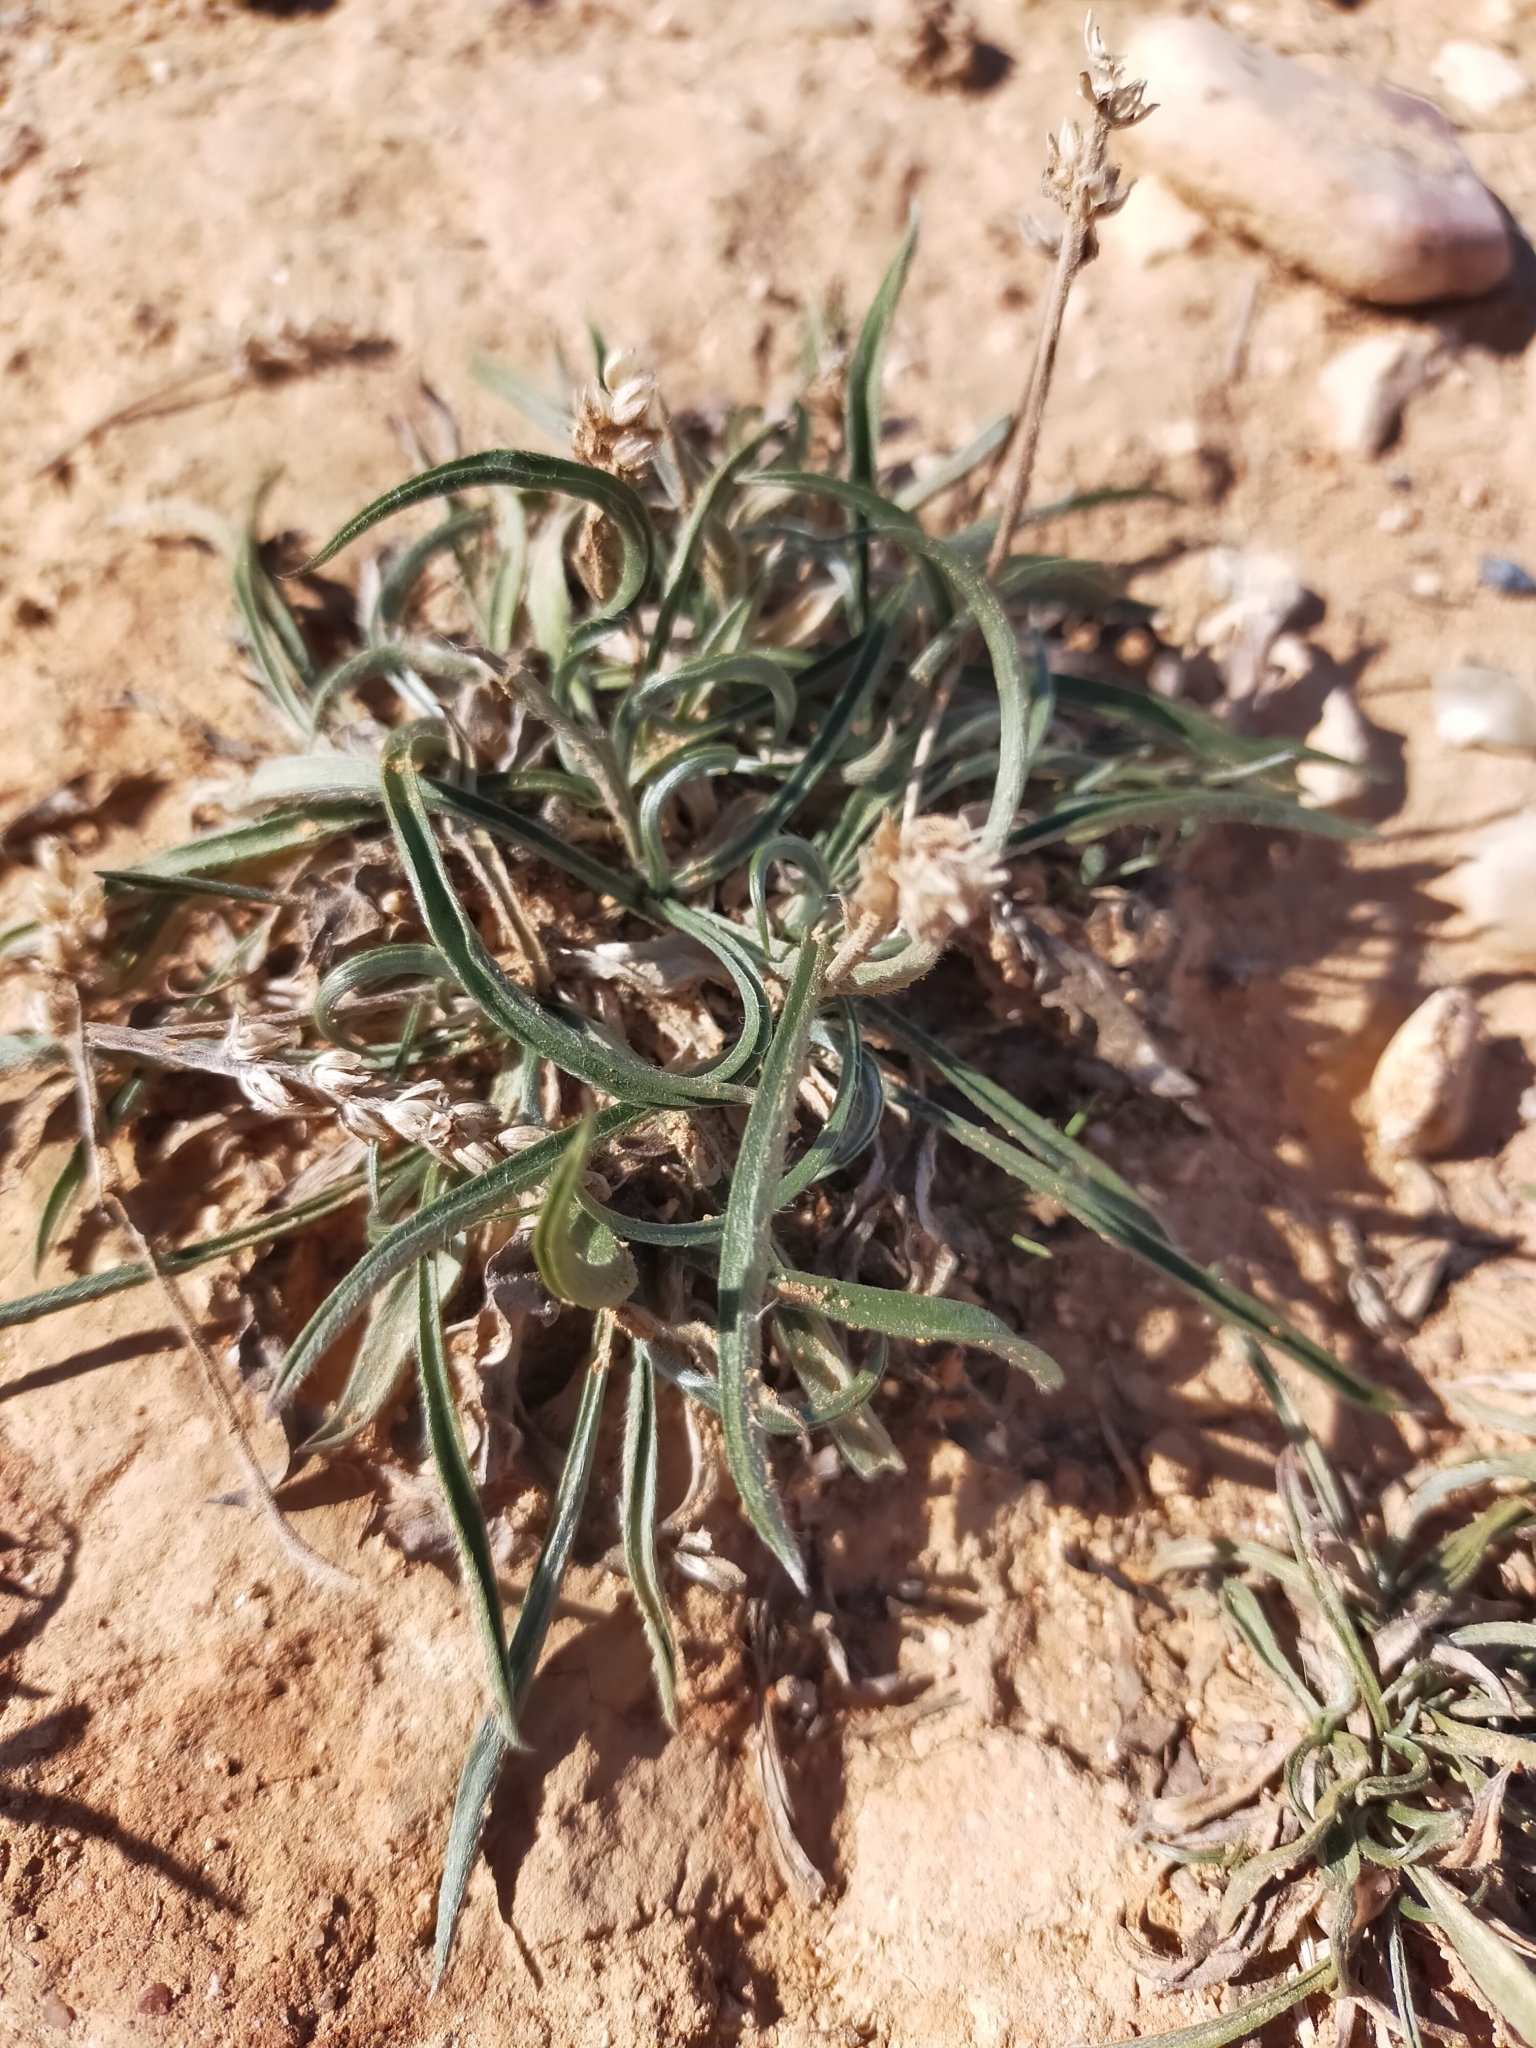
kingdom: Plantae
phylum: Tracheophyta
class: Magnoliopsida
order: Lamiales
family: Plantaginaceae
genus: Plantago
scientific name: Plantago albicans
